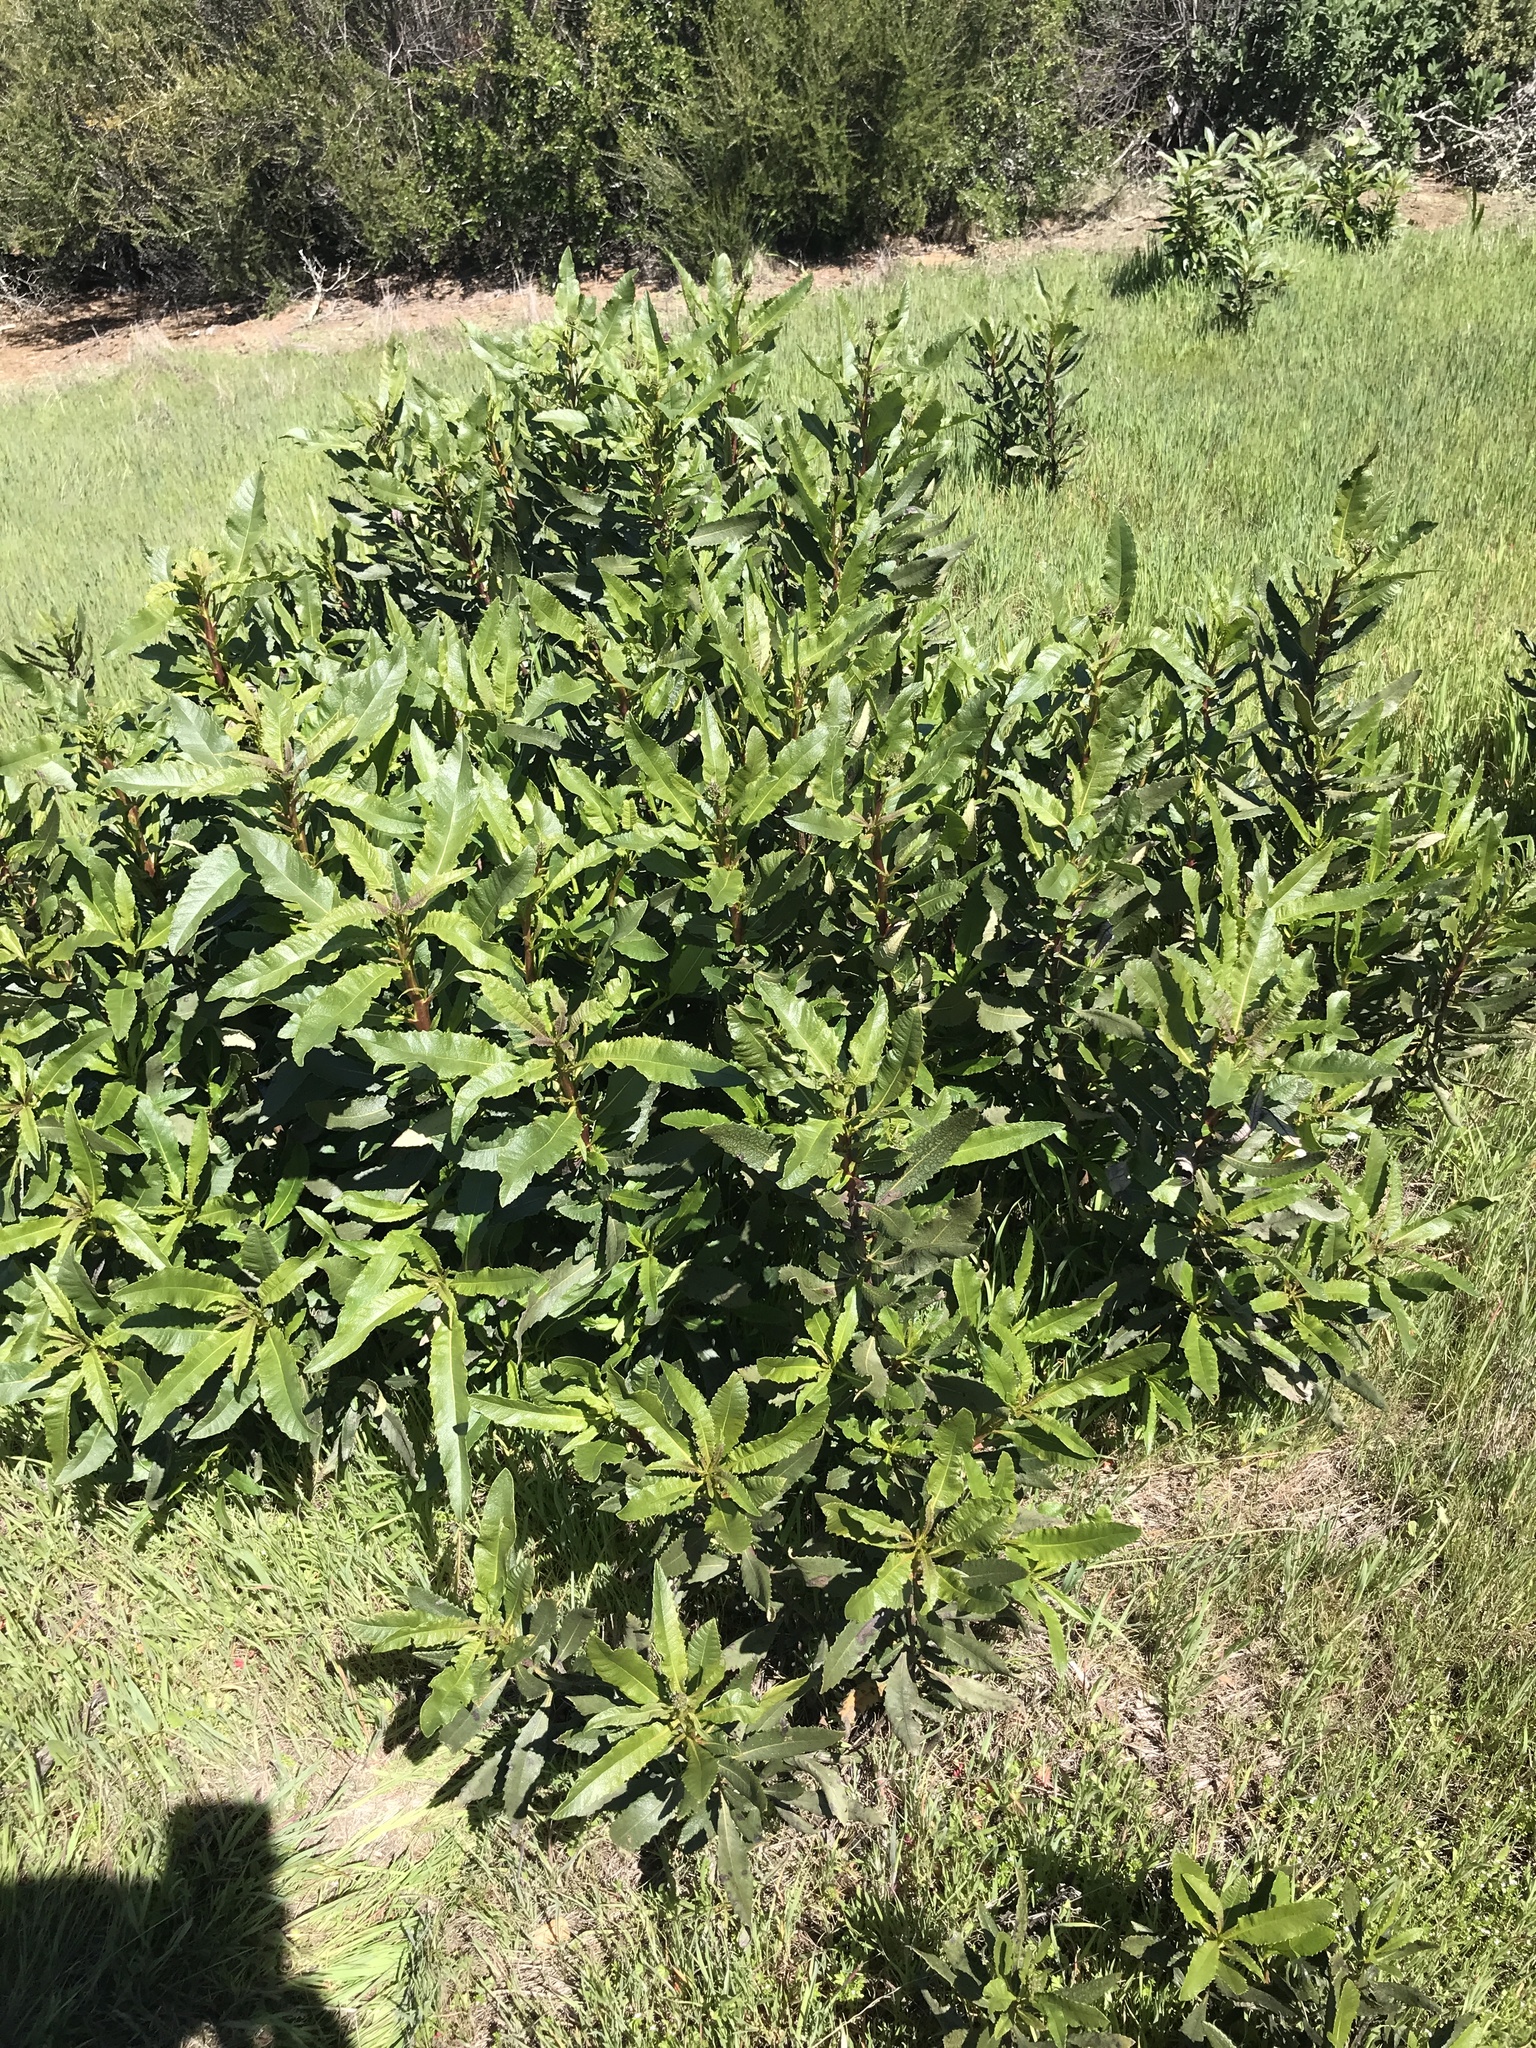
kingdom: Plantae
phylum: Tracheophyta
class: Magnoliopsida
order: Boraginales
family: Namaceae
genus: Eriodictyon
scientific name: Eriodictyon californicum
